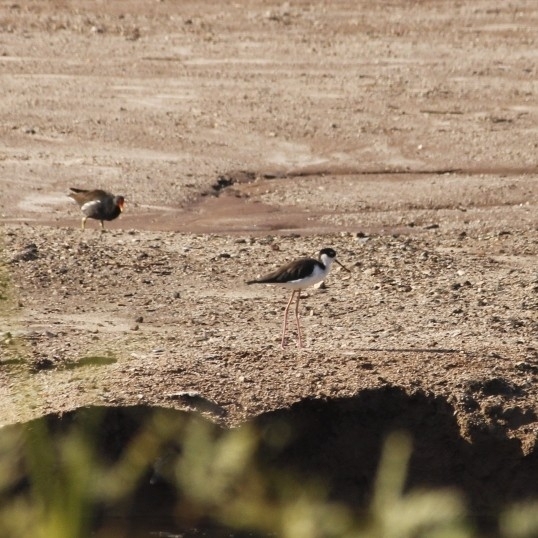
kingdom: Animalia
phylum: Chordata
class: Aves
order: Charadriiformes
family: Recurvirostridae
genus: Himantopus
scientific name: Himantopus mexicanus
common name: Black-necked stilt
